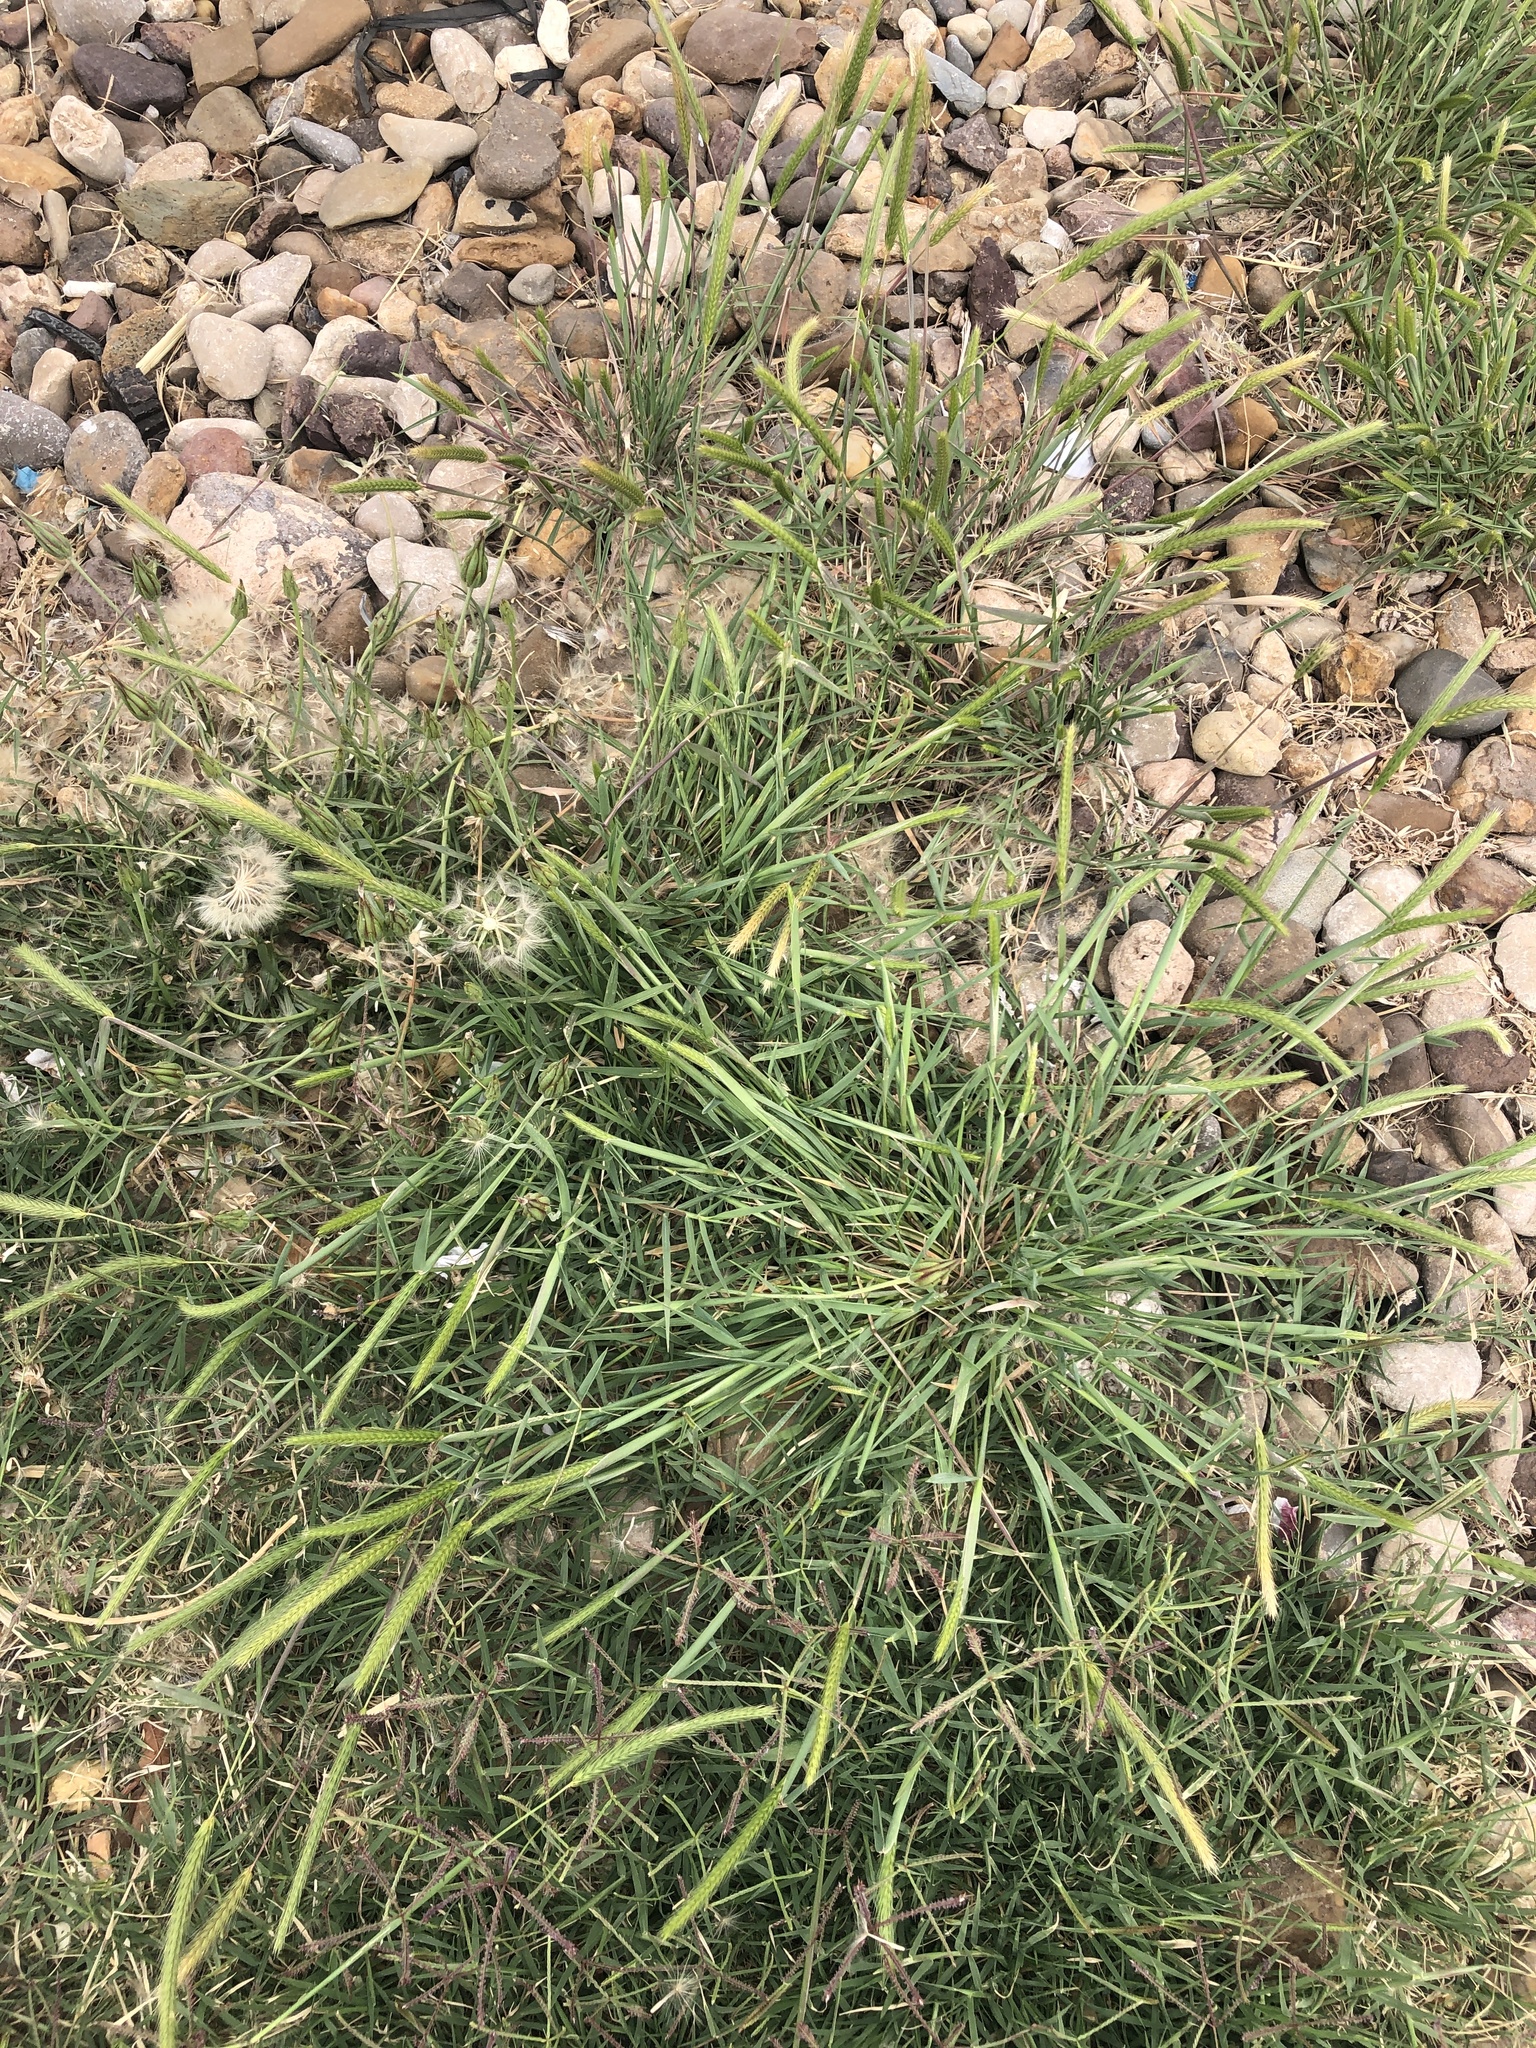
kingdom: Plantae
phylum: Tracheophyta
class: Liliopsida
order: Poales
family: Poaceae
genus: Hordeum
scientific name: Hordeum pusillum
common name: Little barley
